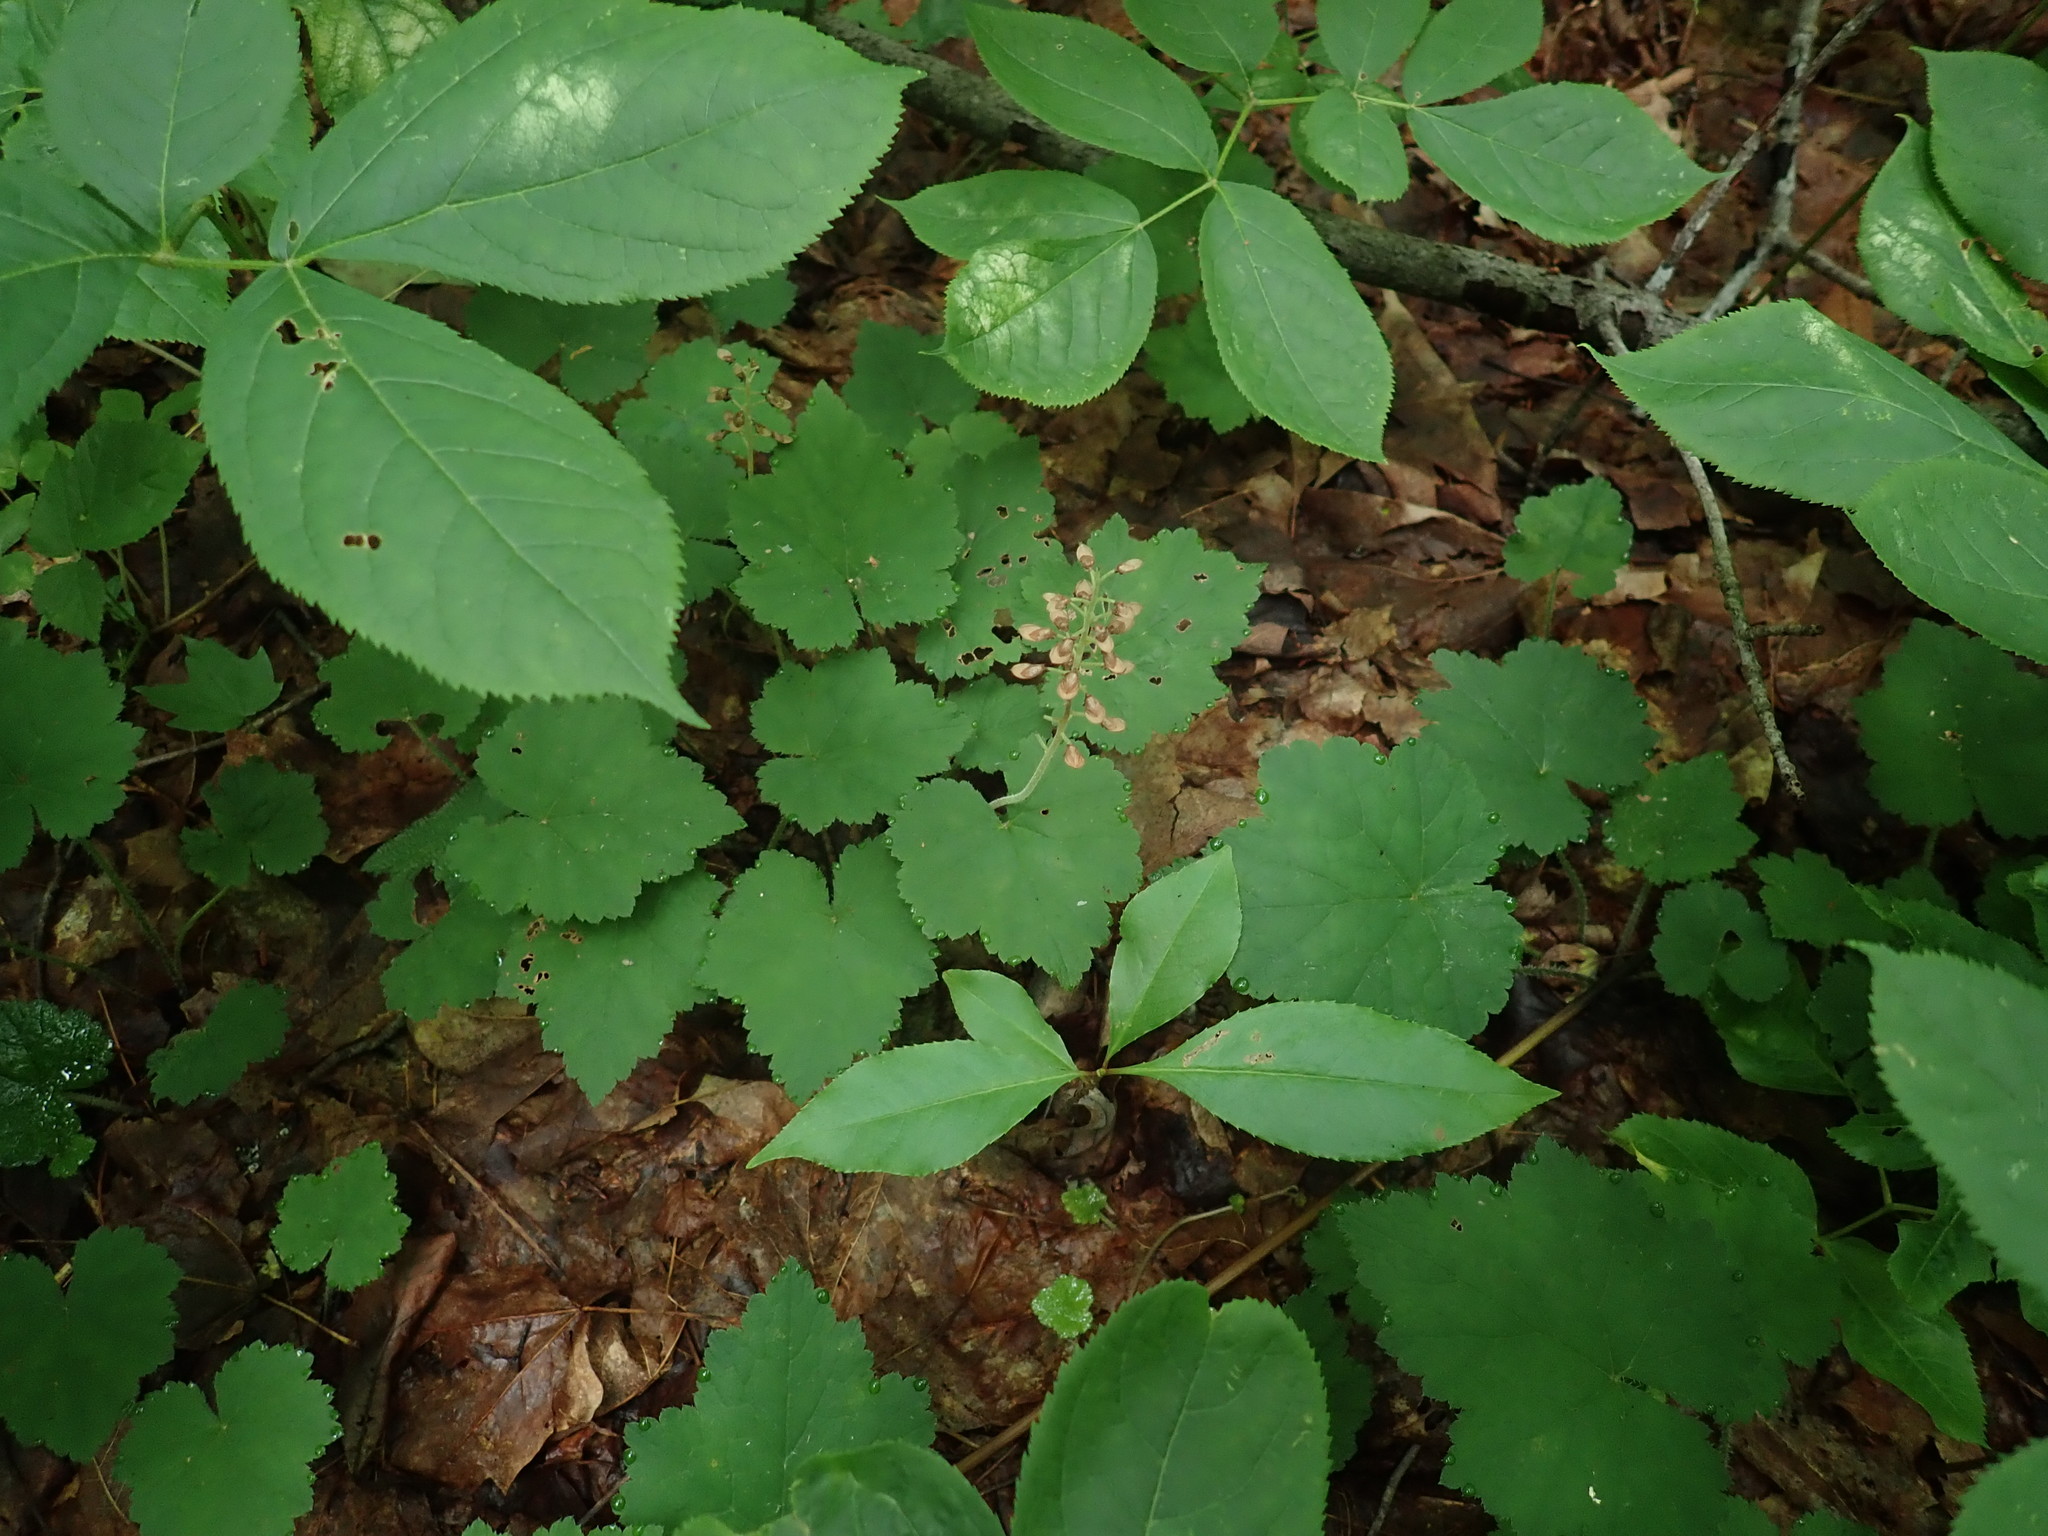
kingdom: Plantae
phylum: Tracheophyta
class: Magnoliopsida
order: Saxifragales
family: Saxifragaceae
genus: Tiarella
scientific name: Tiarella stolonifera
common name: Stoloniferous foamflower
